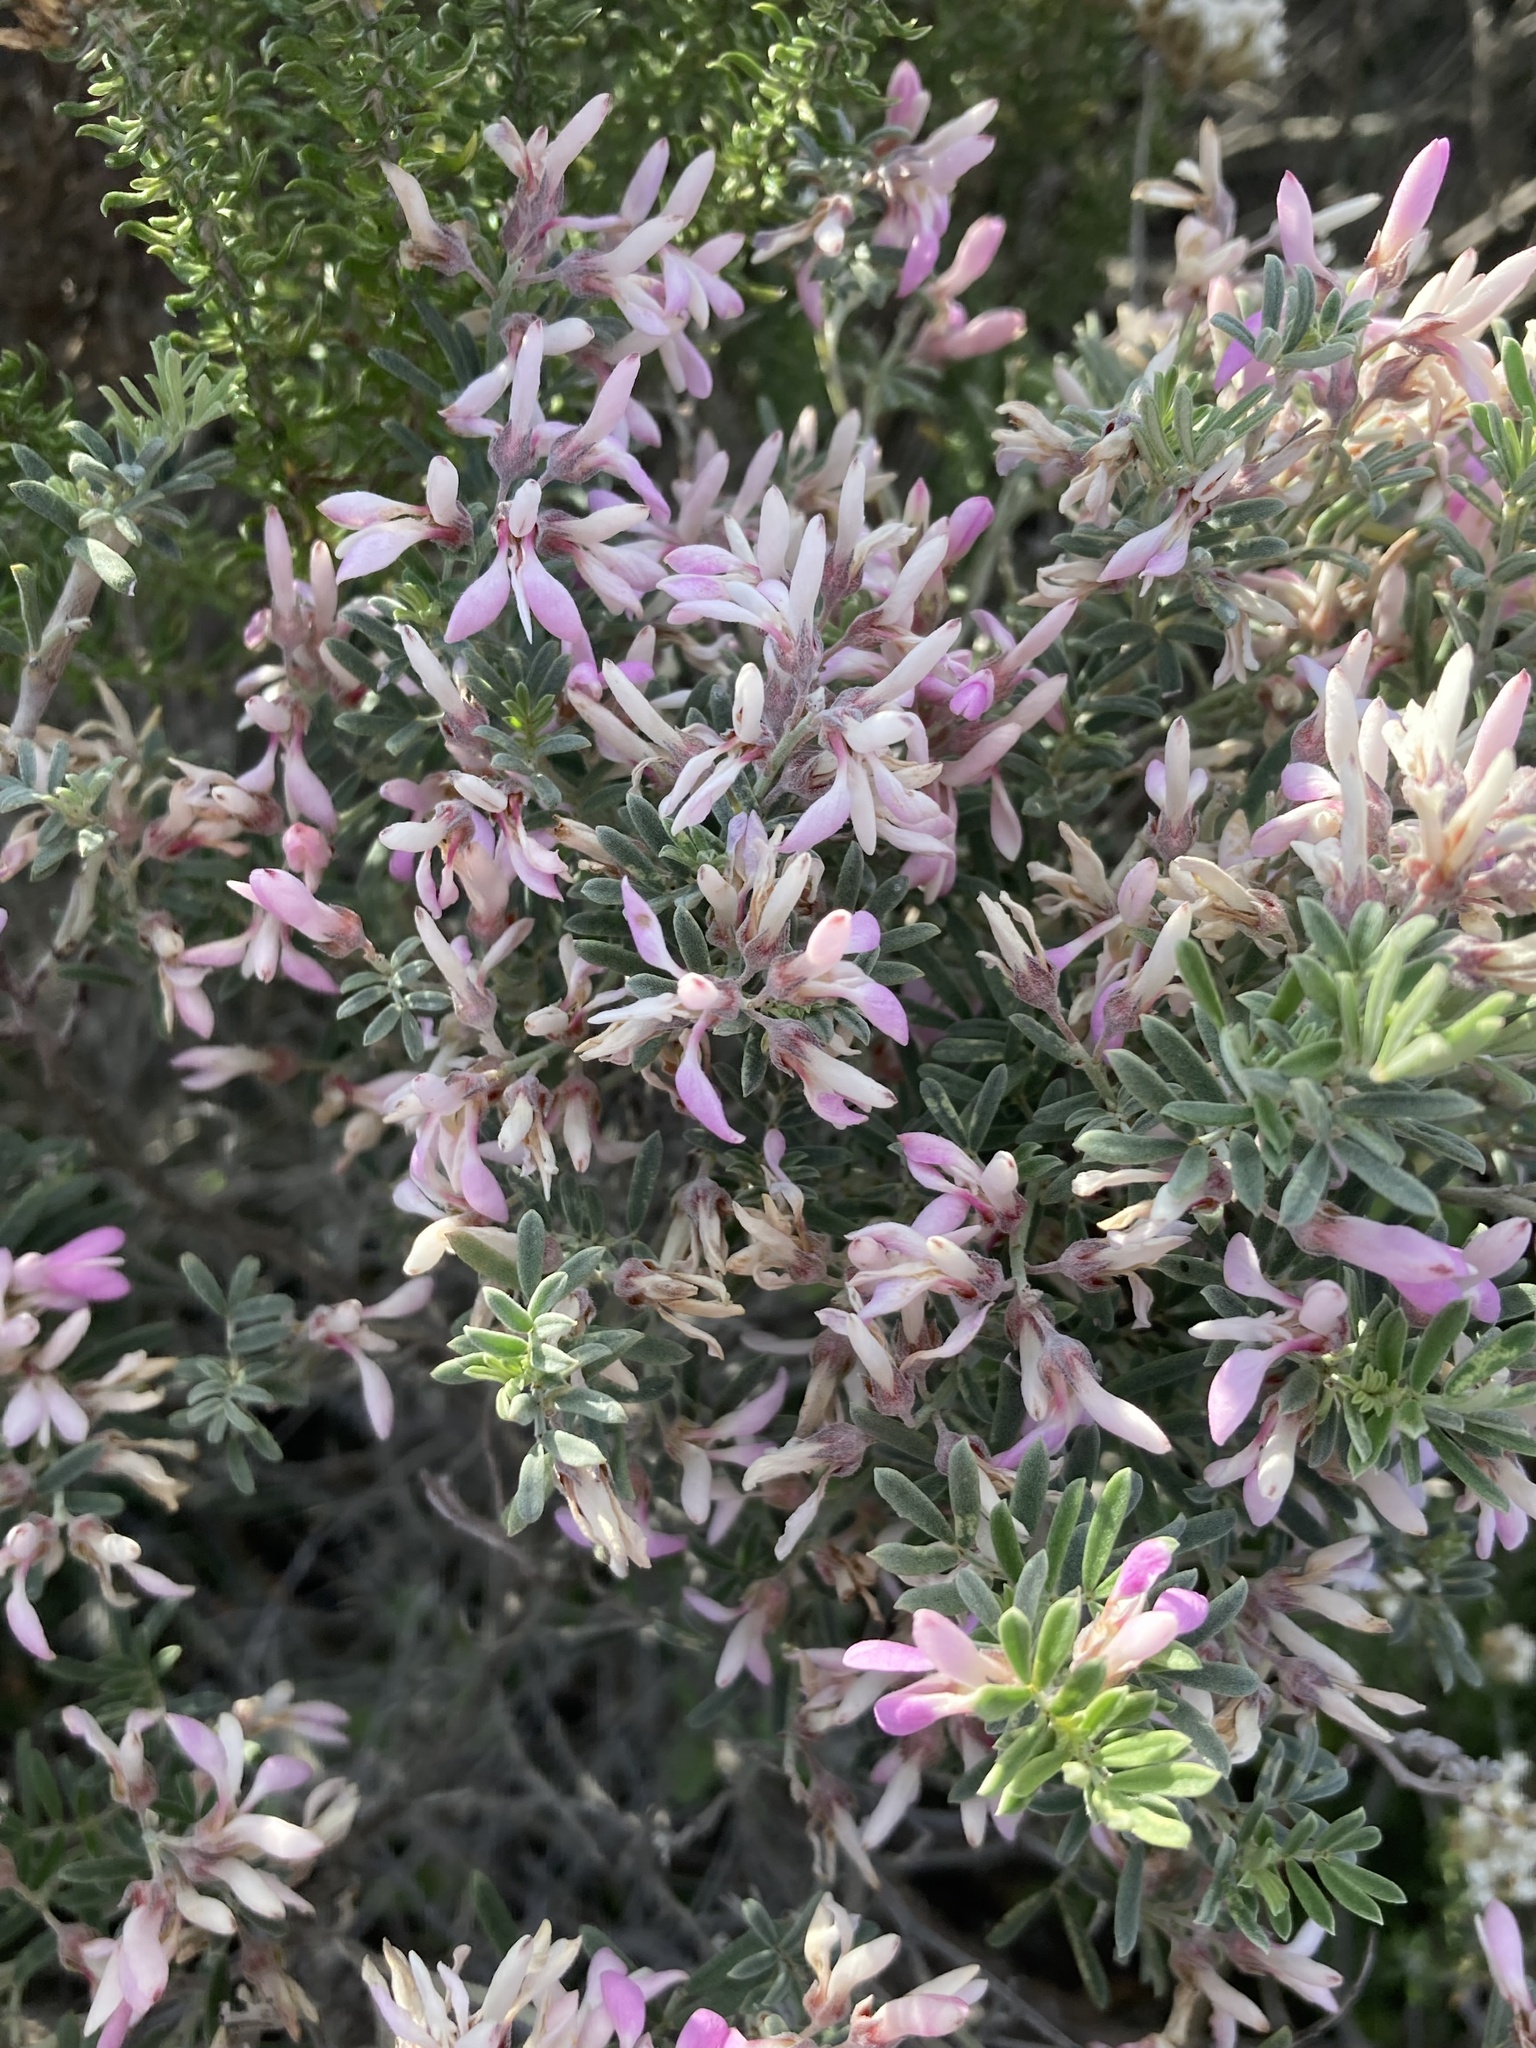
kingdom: Plantae
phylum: Tracheophyta
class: Magnoliopsida
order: Fabales
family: Fabaceae
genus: Indigofera
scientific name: Indigofera brachystachya
